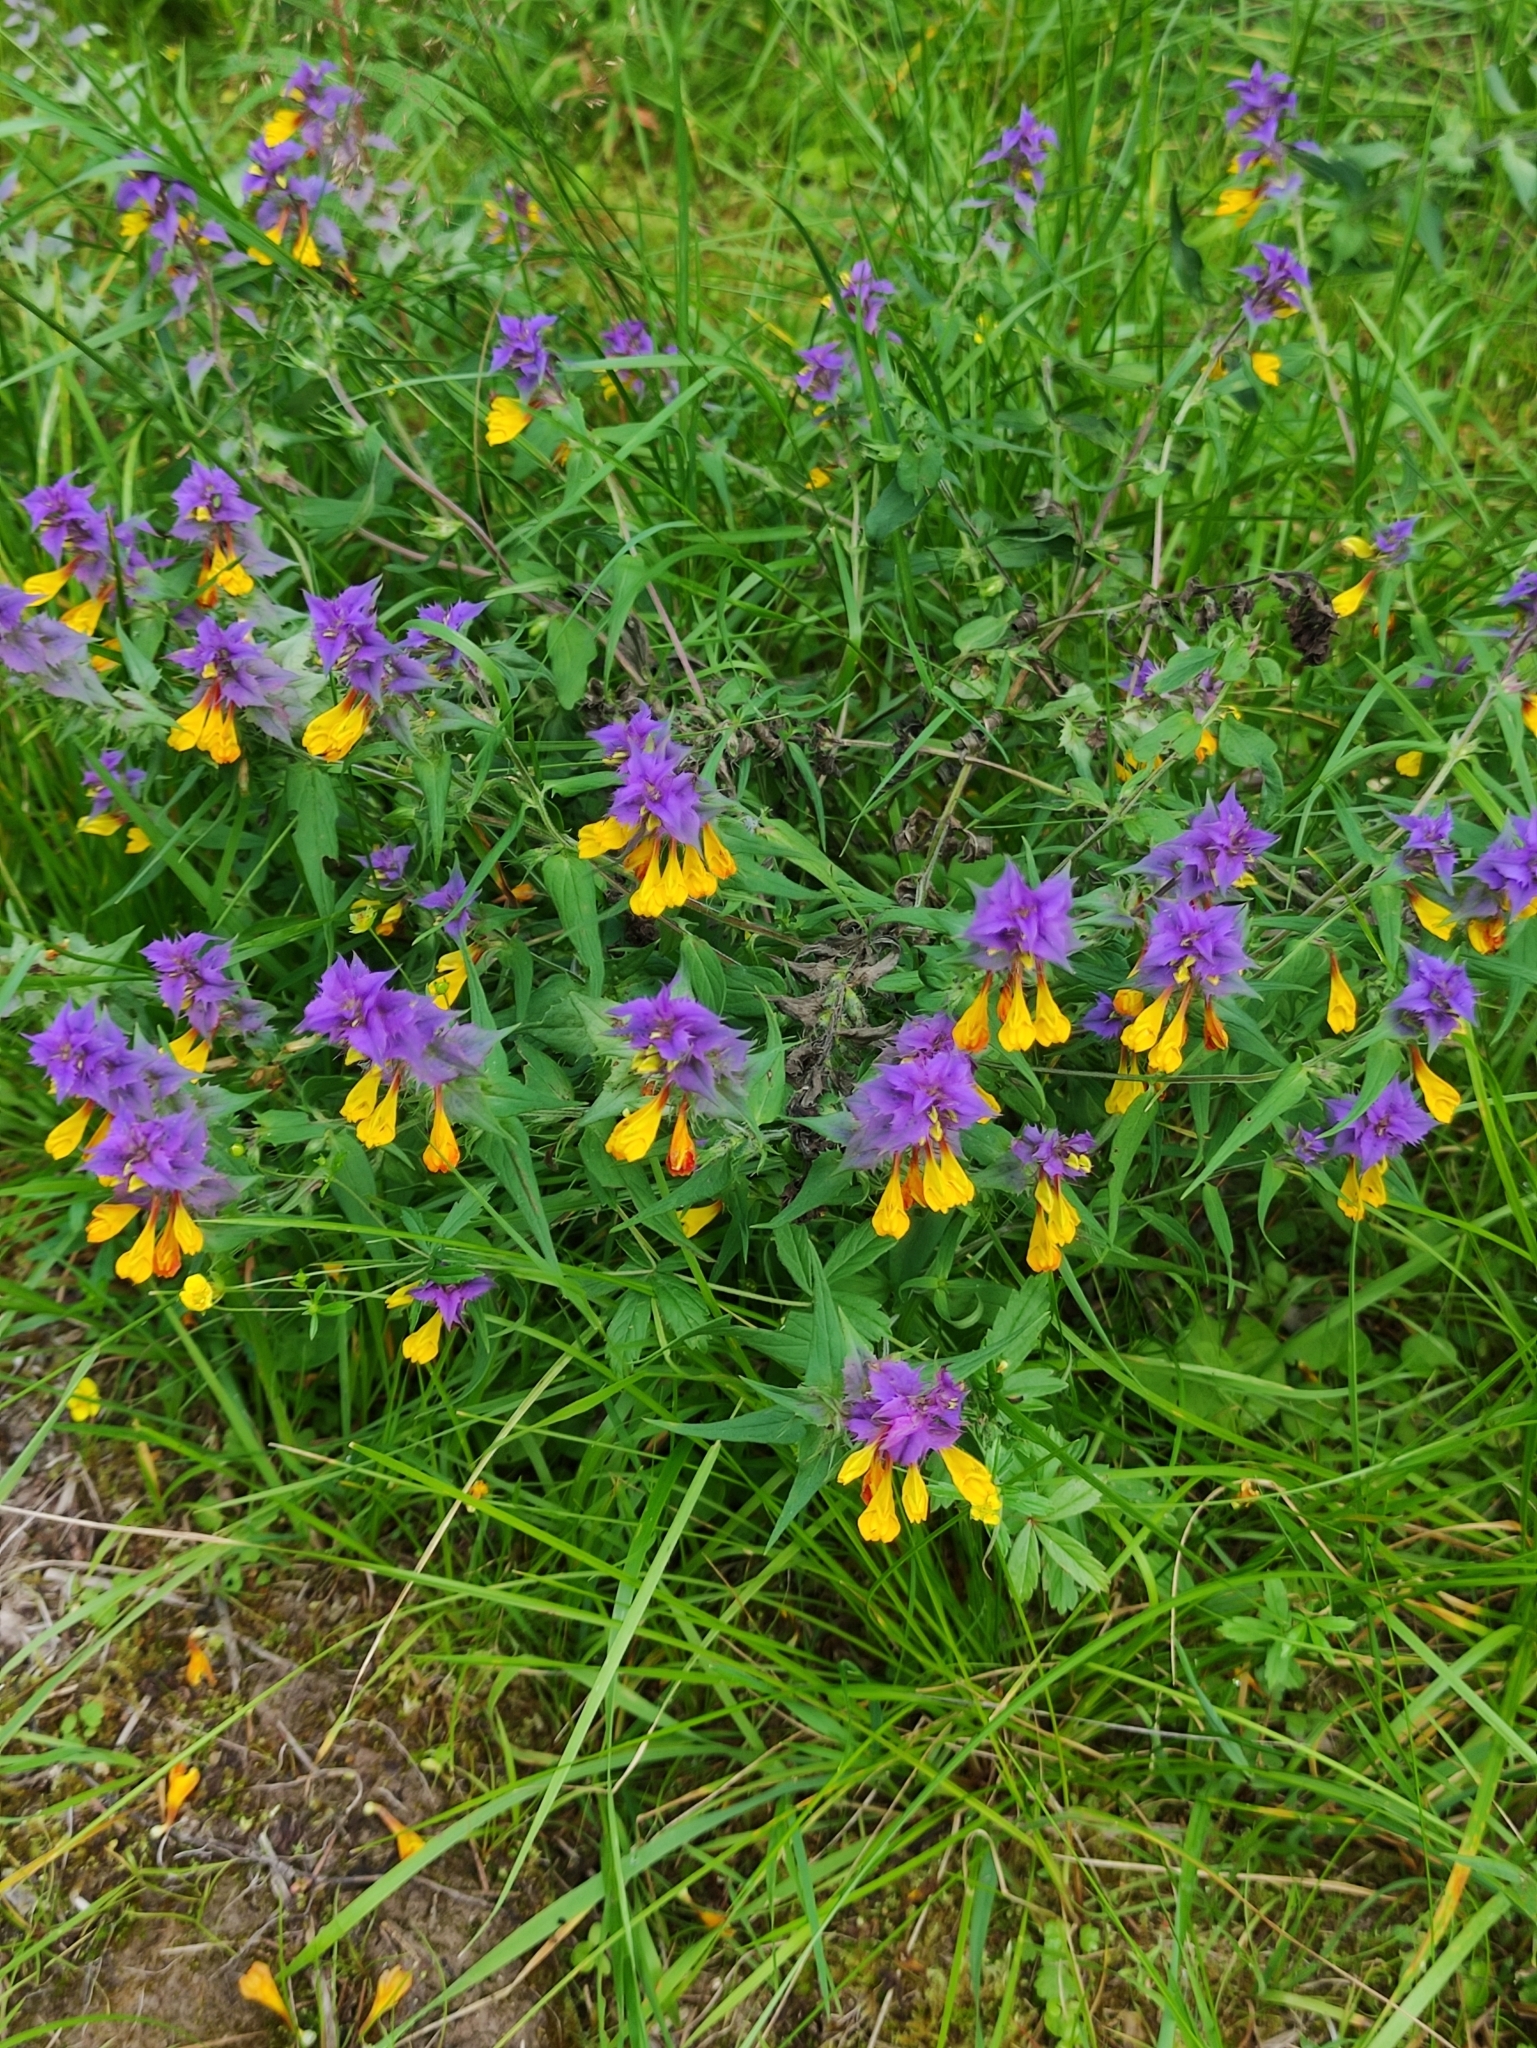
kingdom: Plantae
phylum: Tracheophyta
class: Magnoliopsida
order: Lamiales
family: Orobanchaceae
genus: Melampyrum
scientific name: Melampyrum nemorosum
